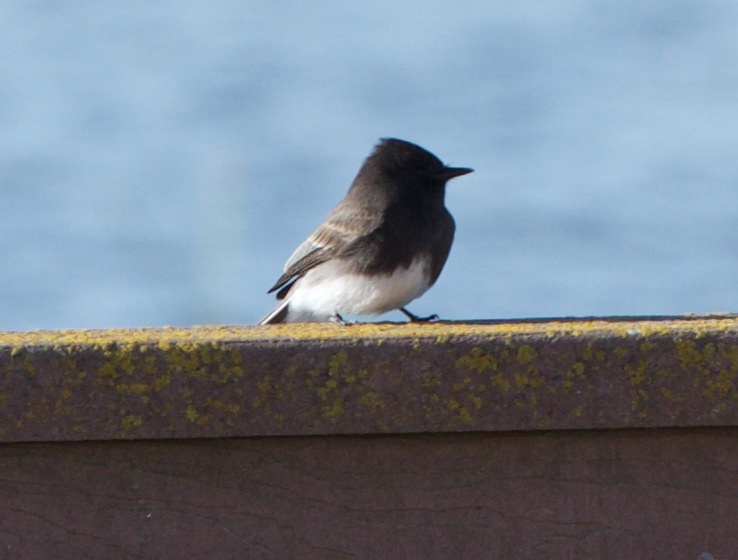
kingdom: Animalia
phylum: Chordata
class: Aves
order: Passeriformes
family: Tyrannidae
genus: Sayornis
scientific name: Sayornis nigricans
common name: Black phoebe
